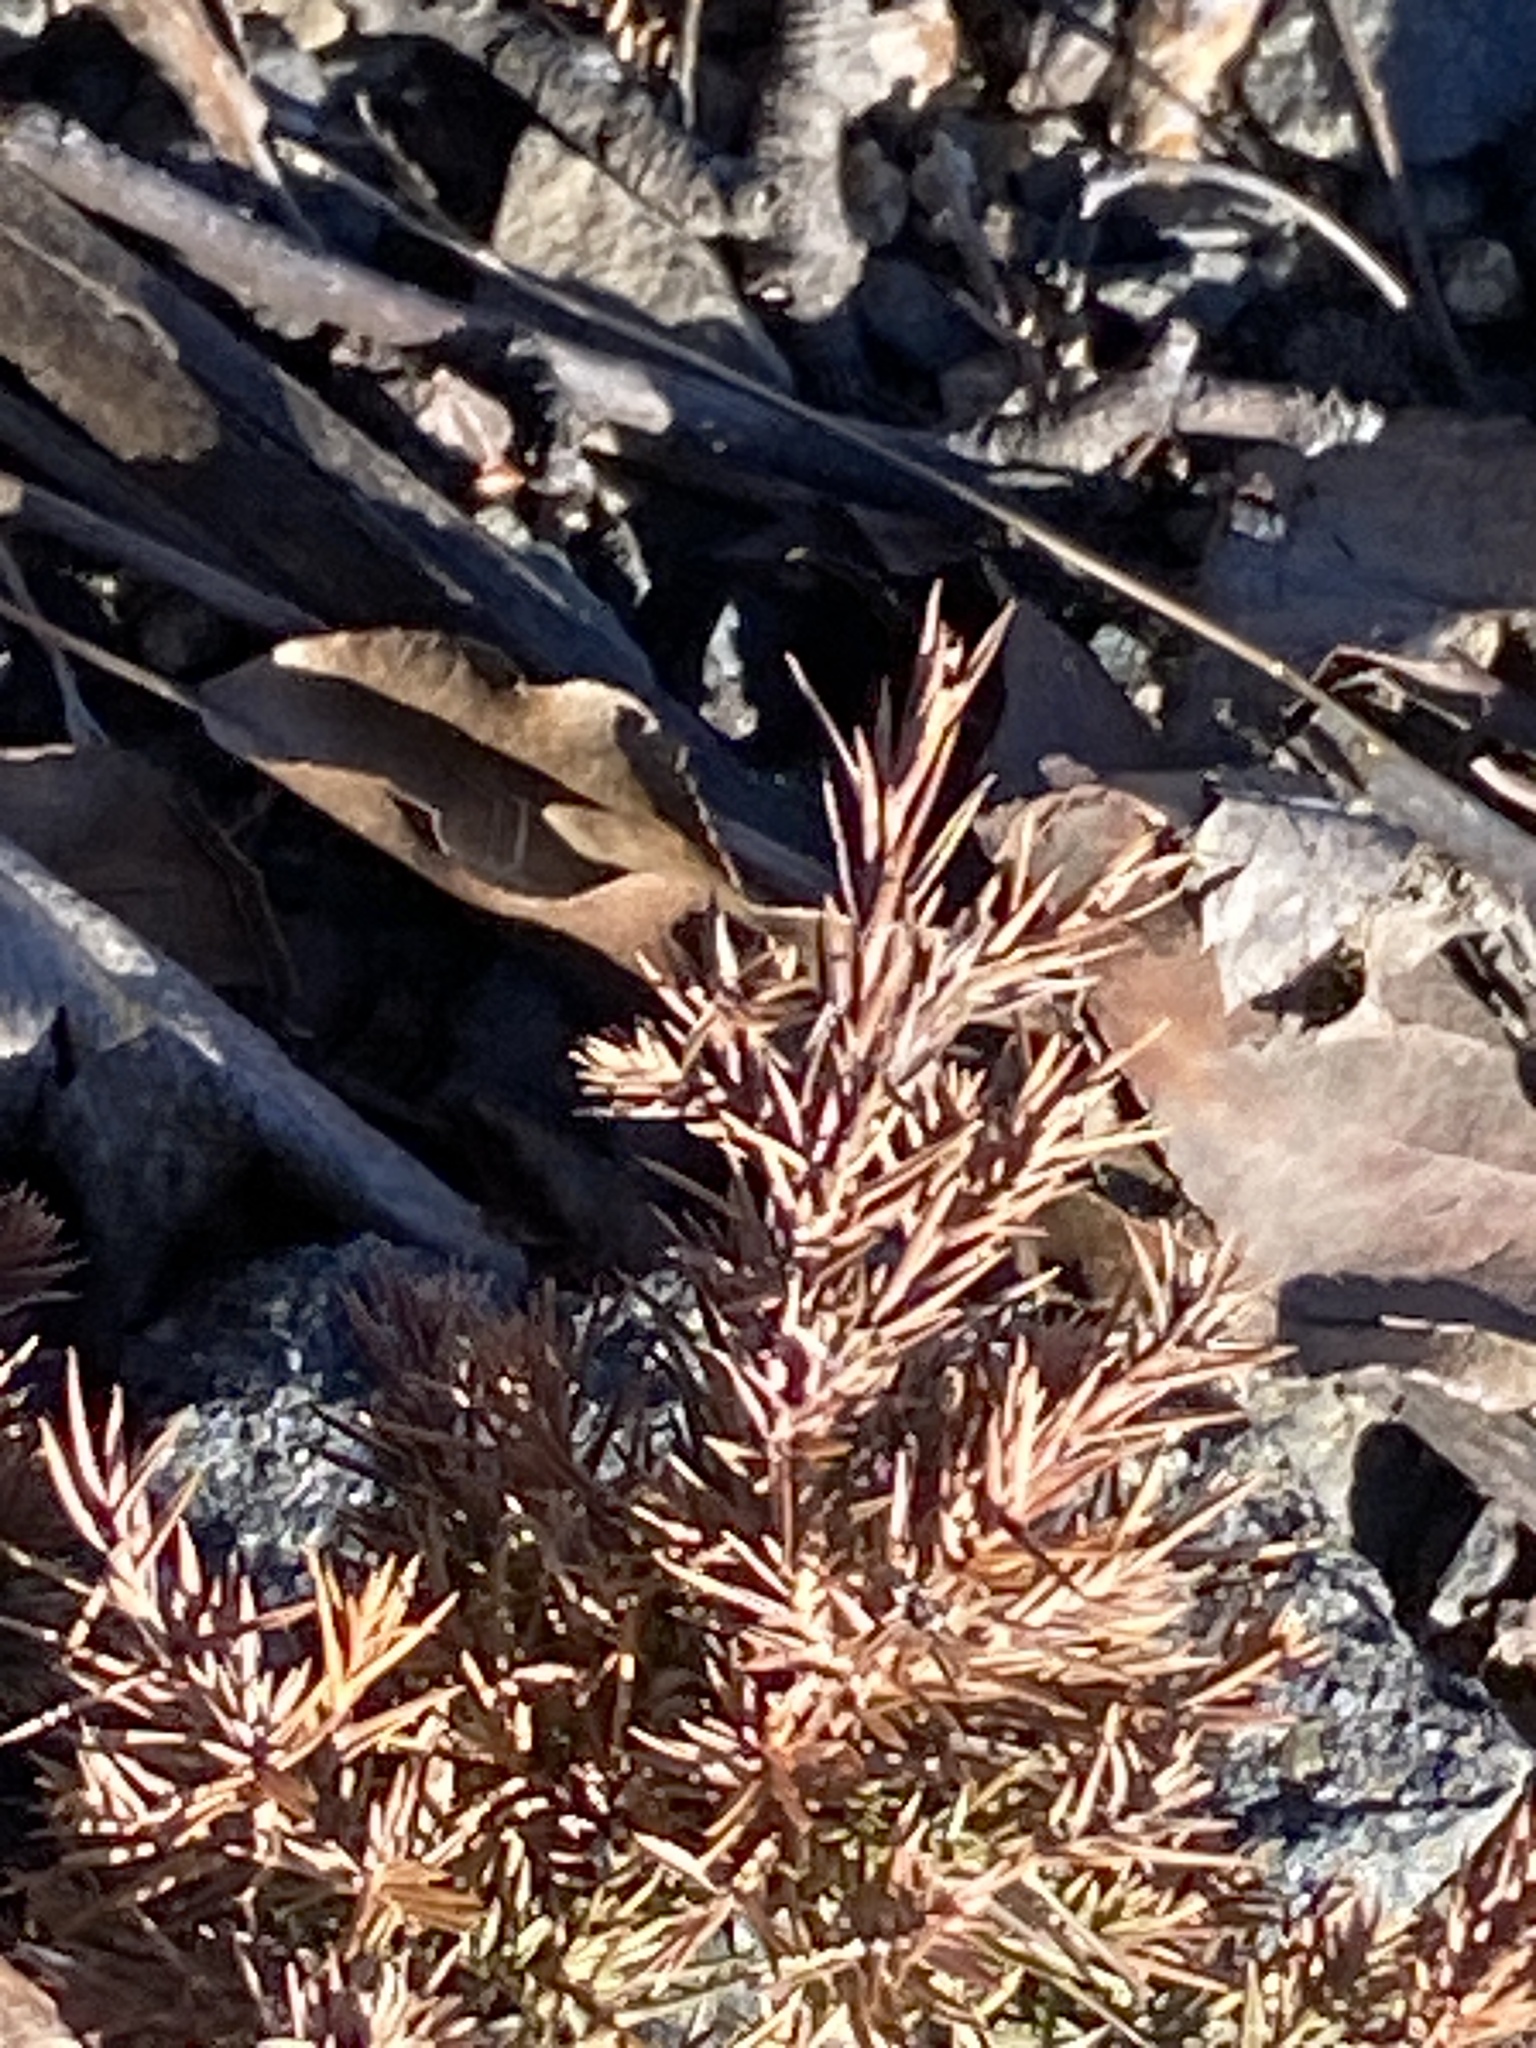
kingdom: Plantae
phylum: Tracheophyta
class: Pinopsida
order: Pinales
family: Cupressaceae
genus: Juniperus
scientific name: Juniperus virginiana
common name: Red juniper
